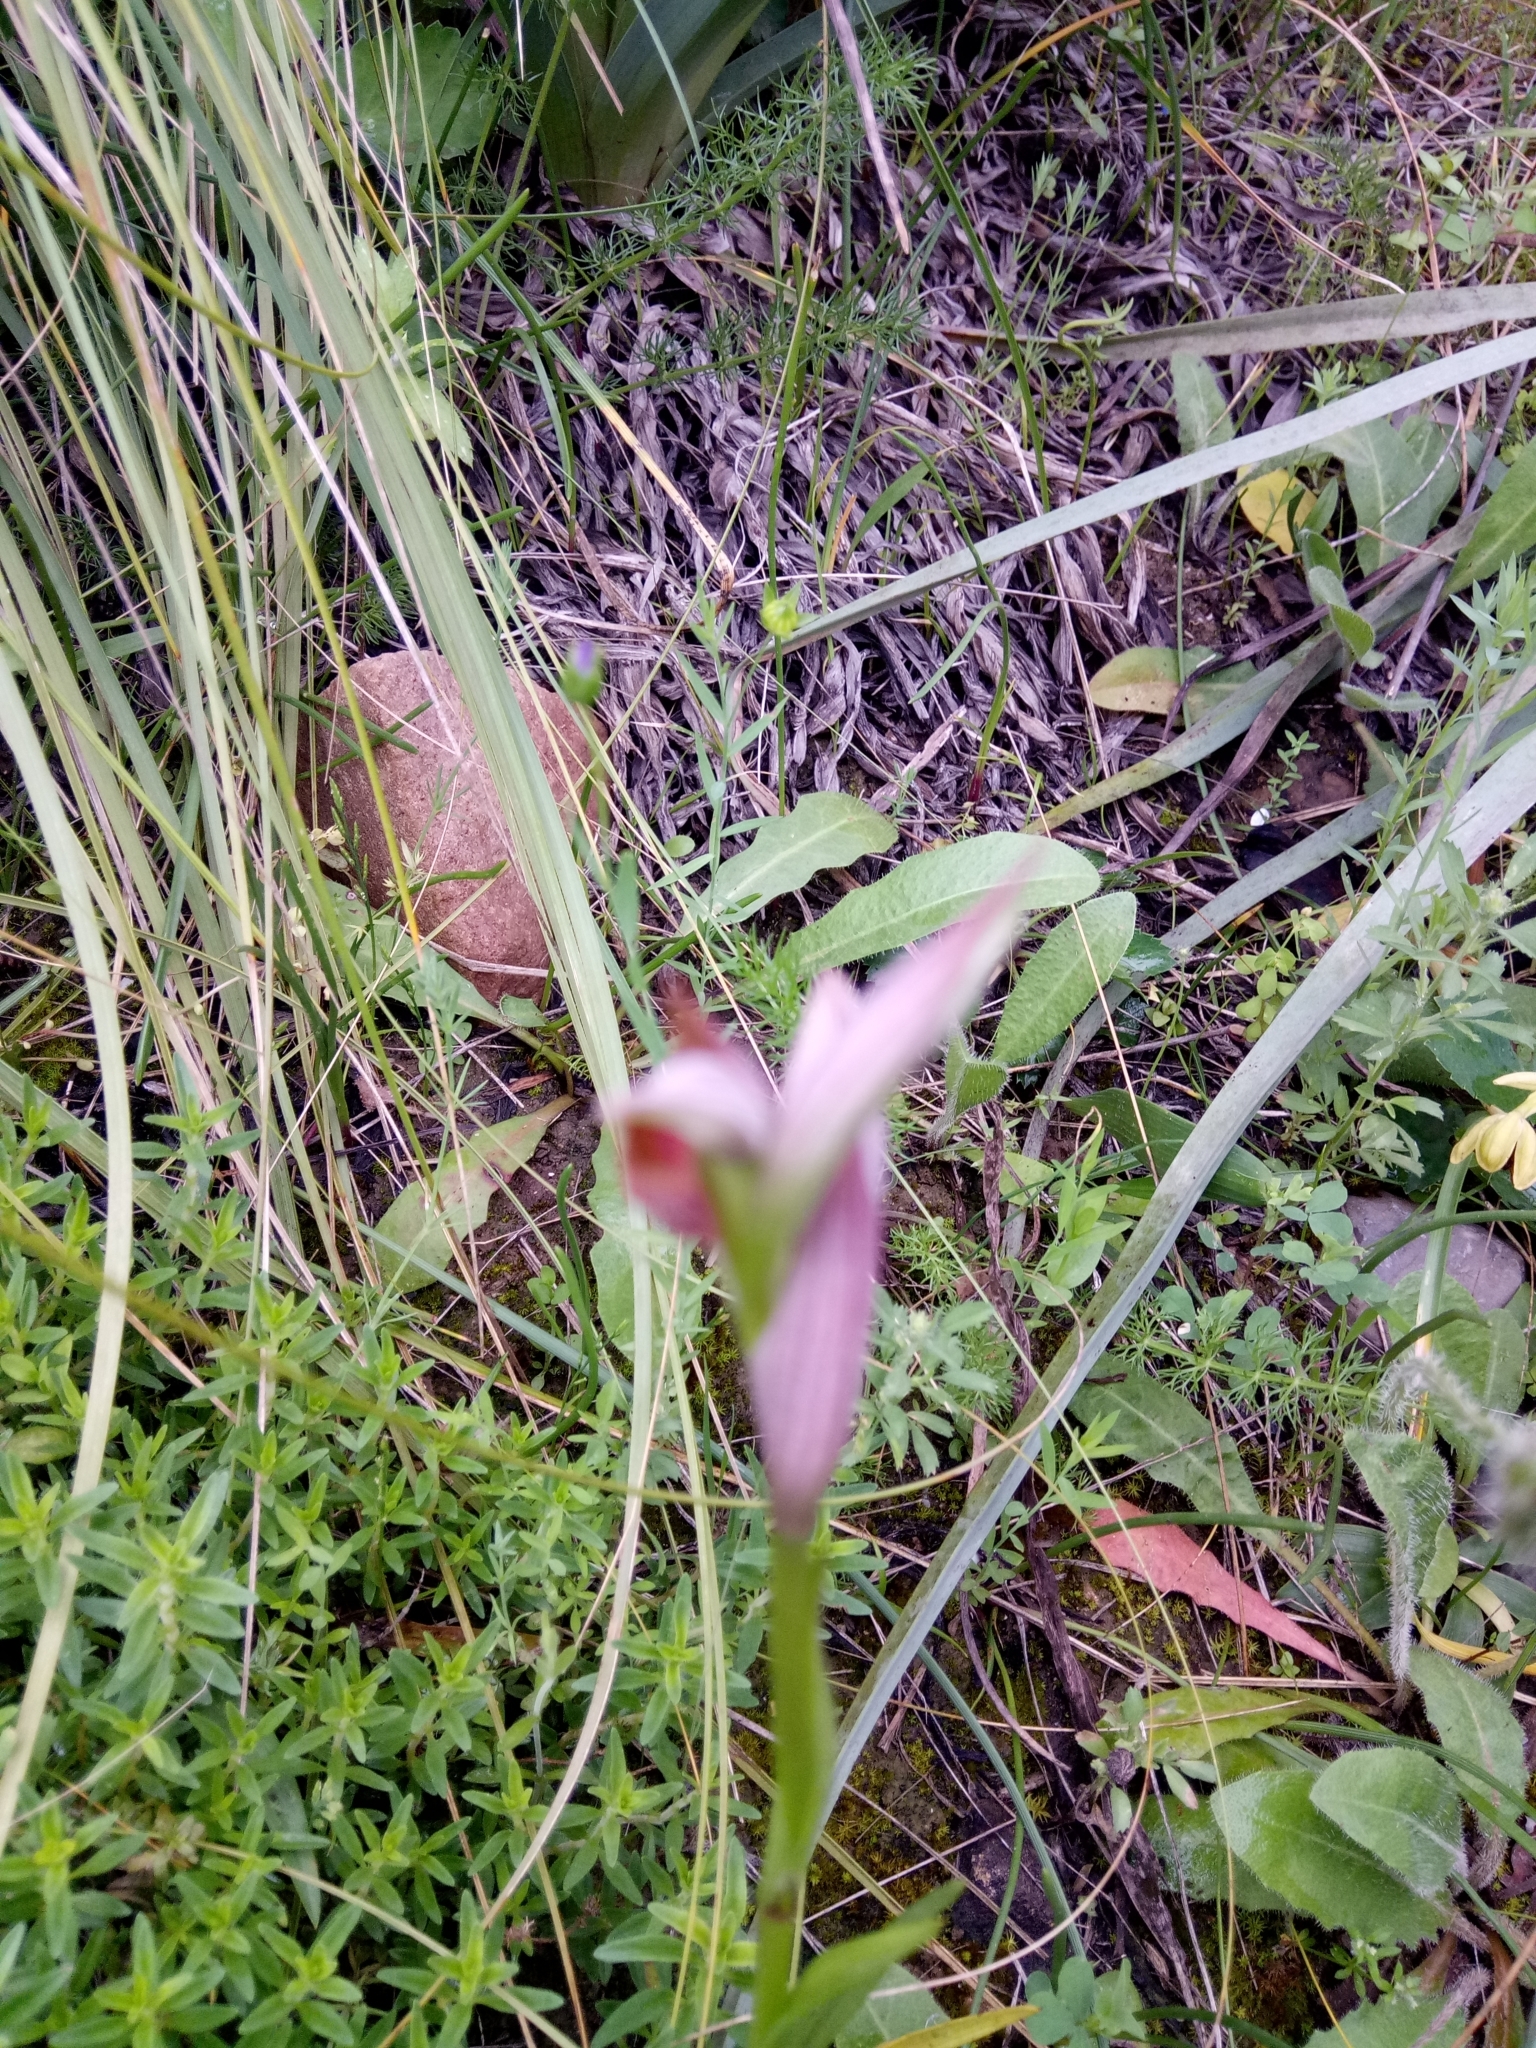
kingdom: Plantae
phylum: Tracheophyta
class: Liliopsida
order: Asparagales
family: Orchidaceae
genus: Ophrys
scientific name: Ophrys lutea
